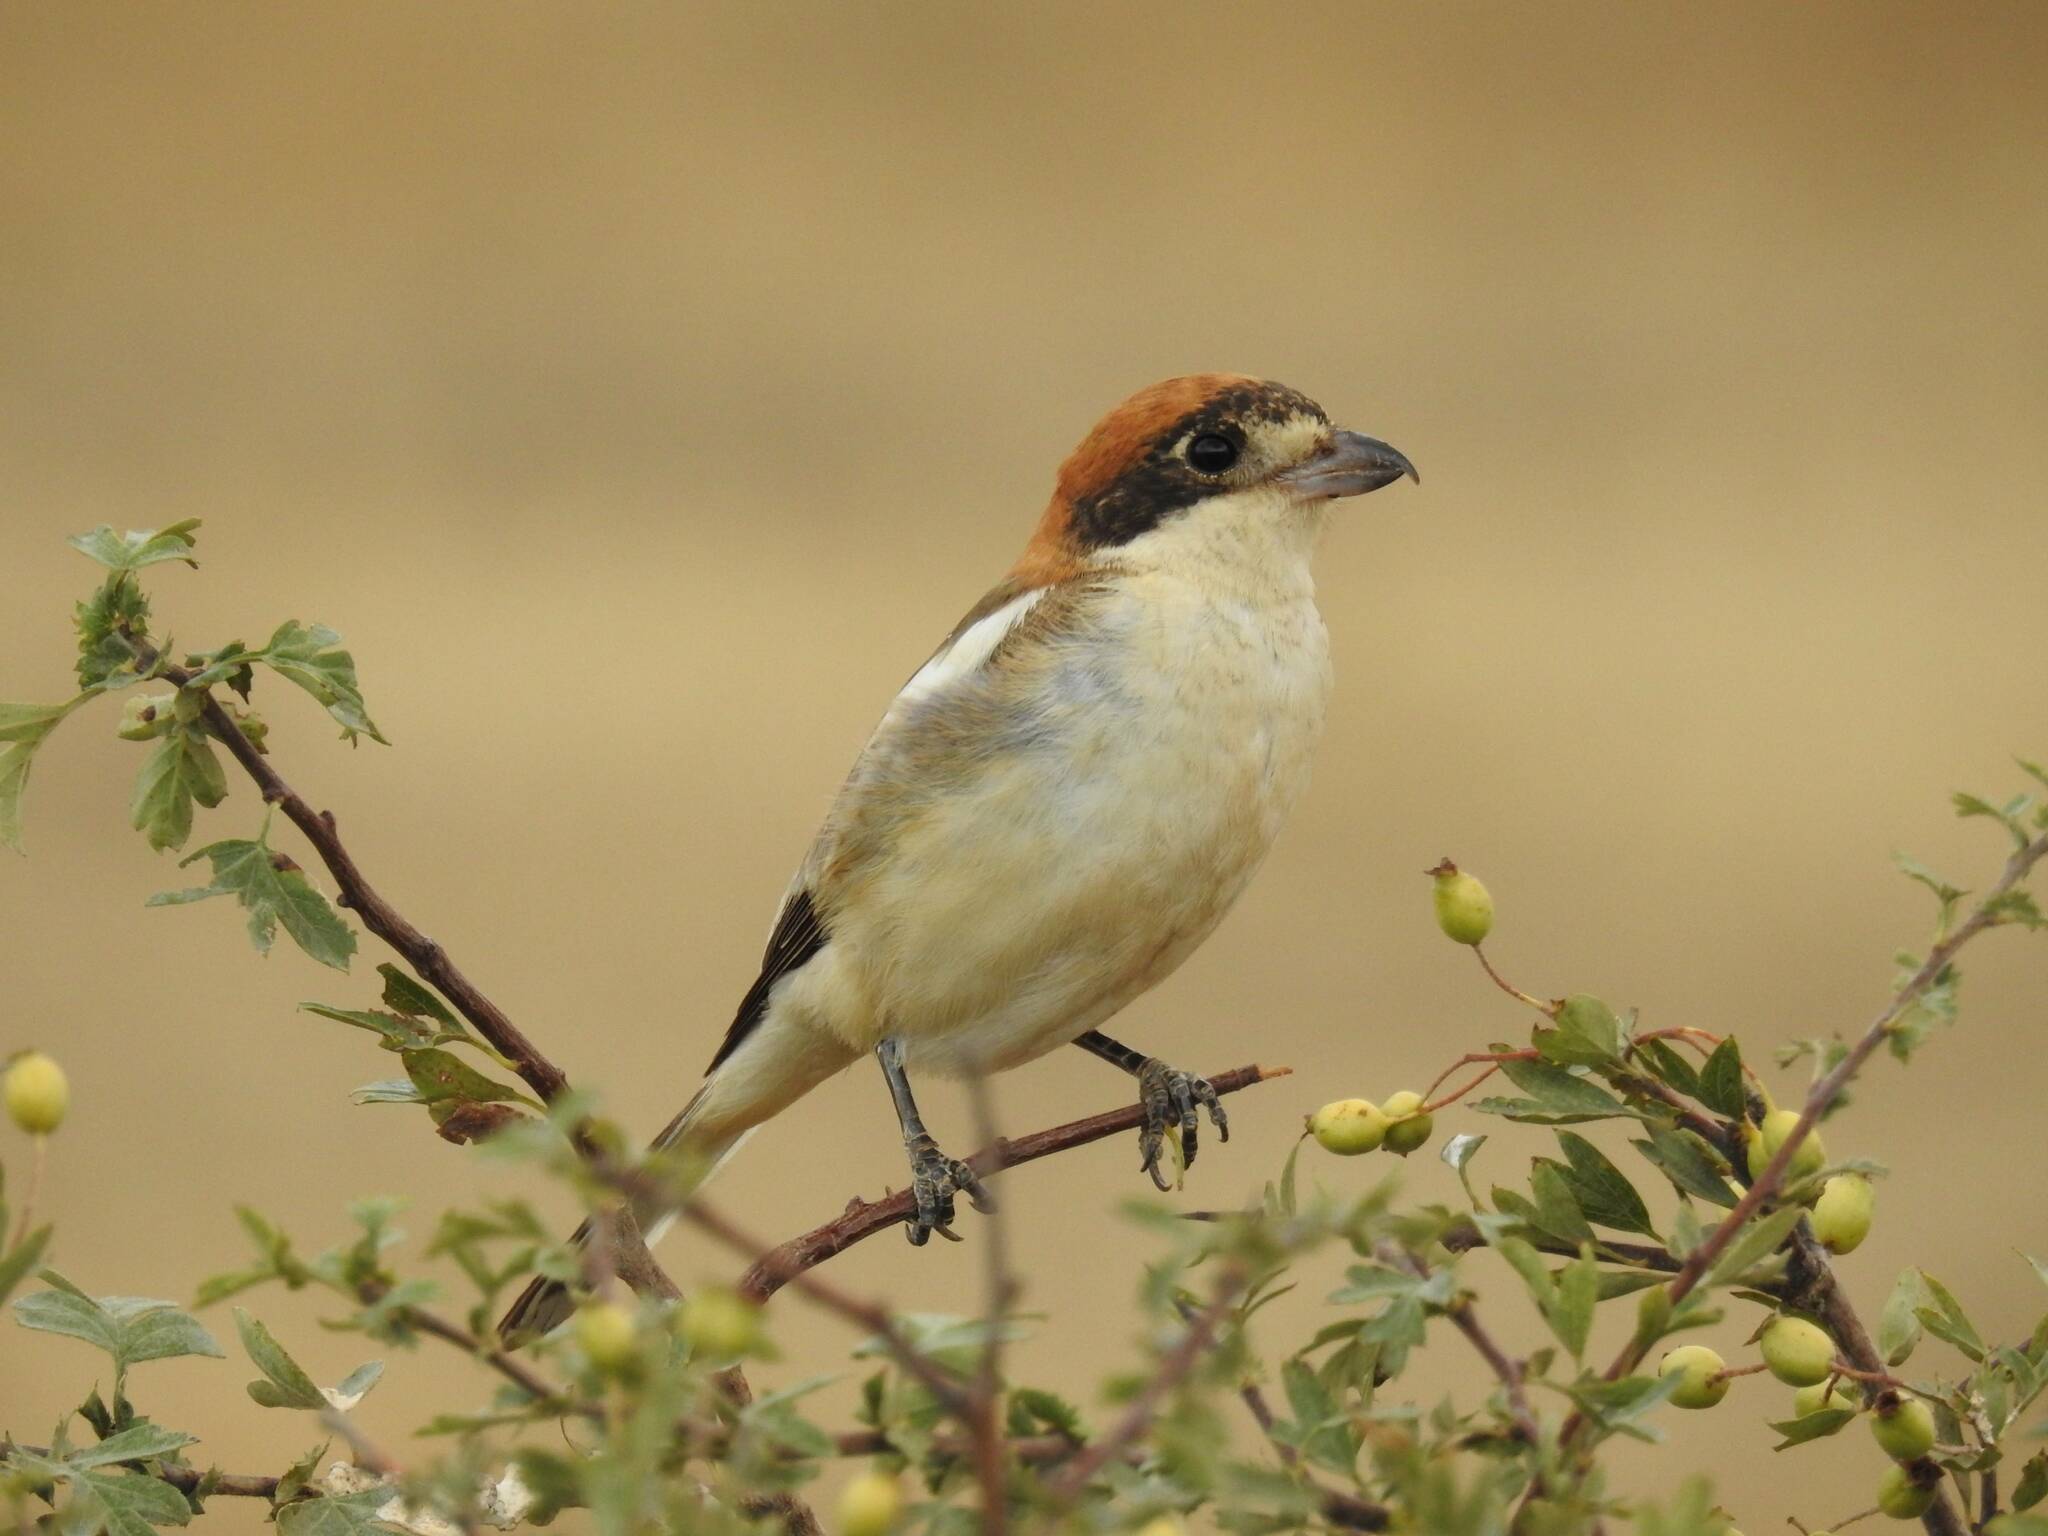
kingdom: Animalia
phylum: Chordata
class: Aves
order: Passeriformes
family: Laniidae
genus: Lanius
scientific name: Lanius senator
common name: Woodchat shrike
